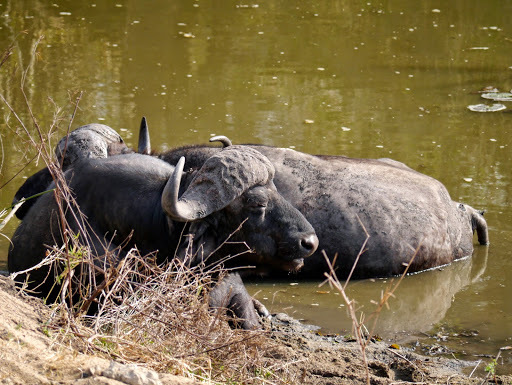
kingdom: Animalia
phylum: Chordata
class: Mammalia
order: Artiodactyla
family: Bovidae
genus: Syncerus
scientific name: Syncerus caffer
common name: African buffalo
